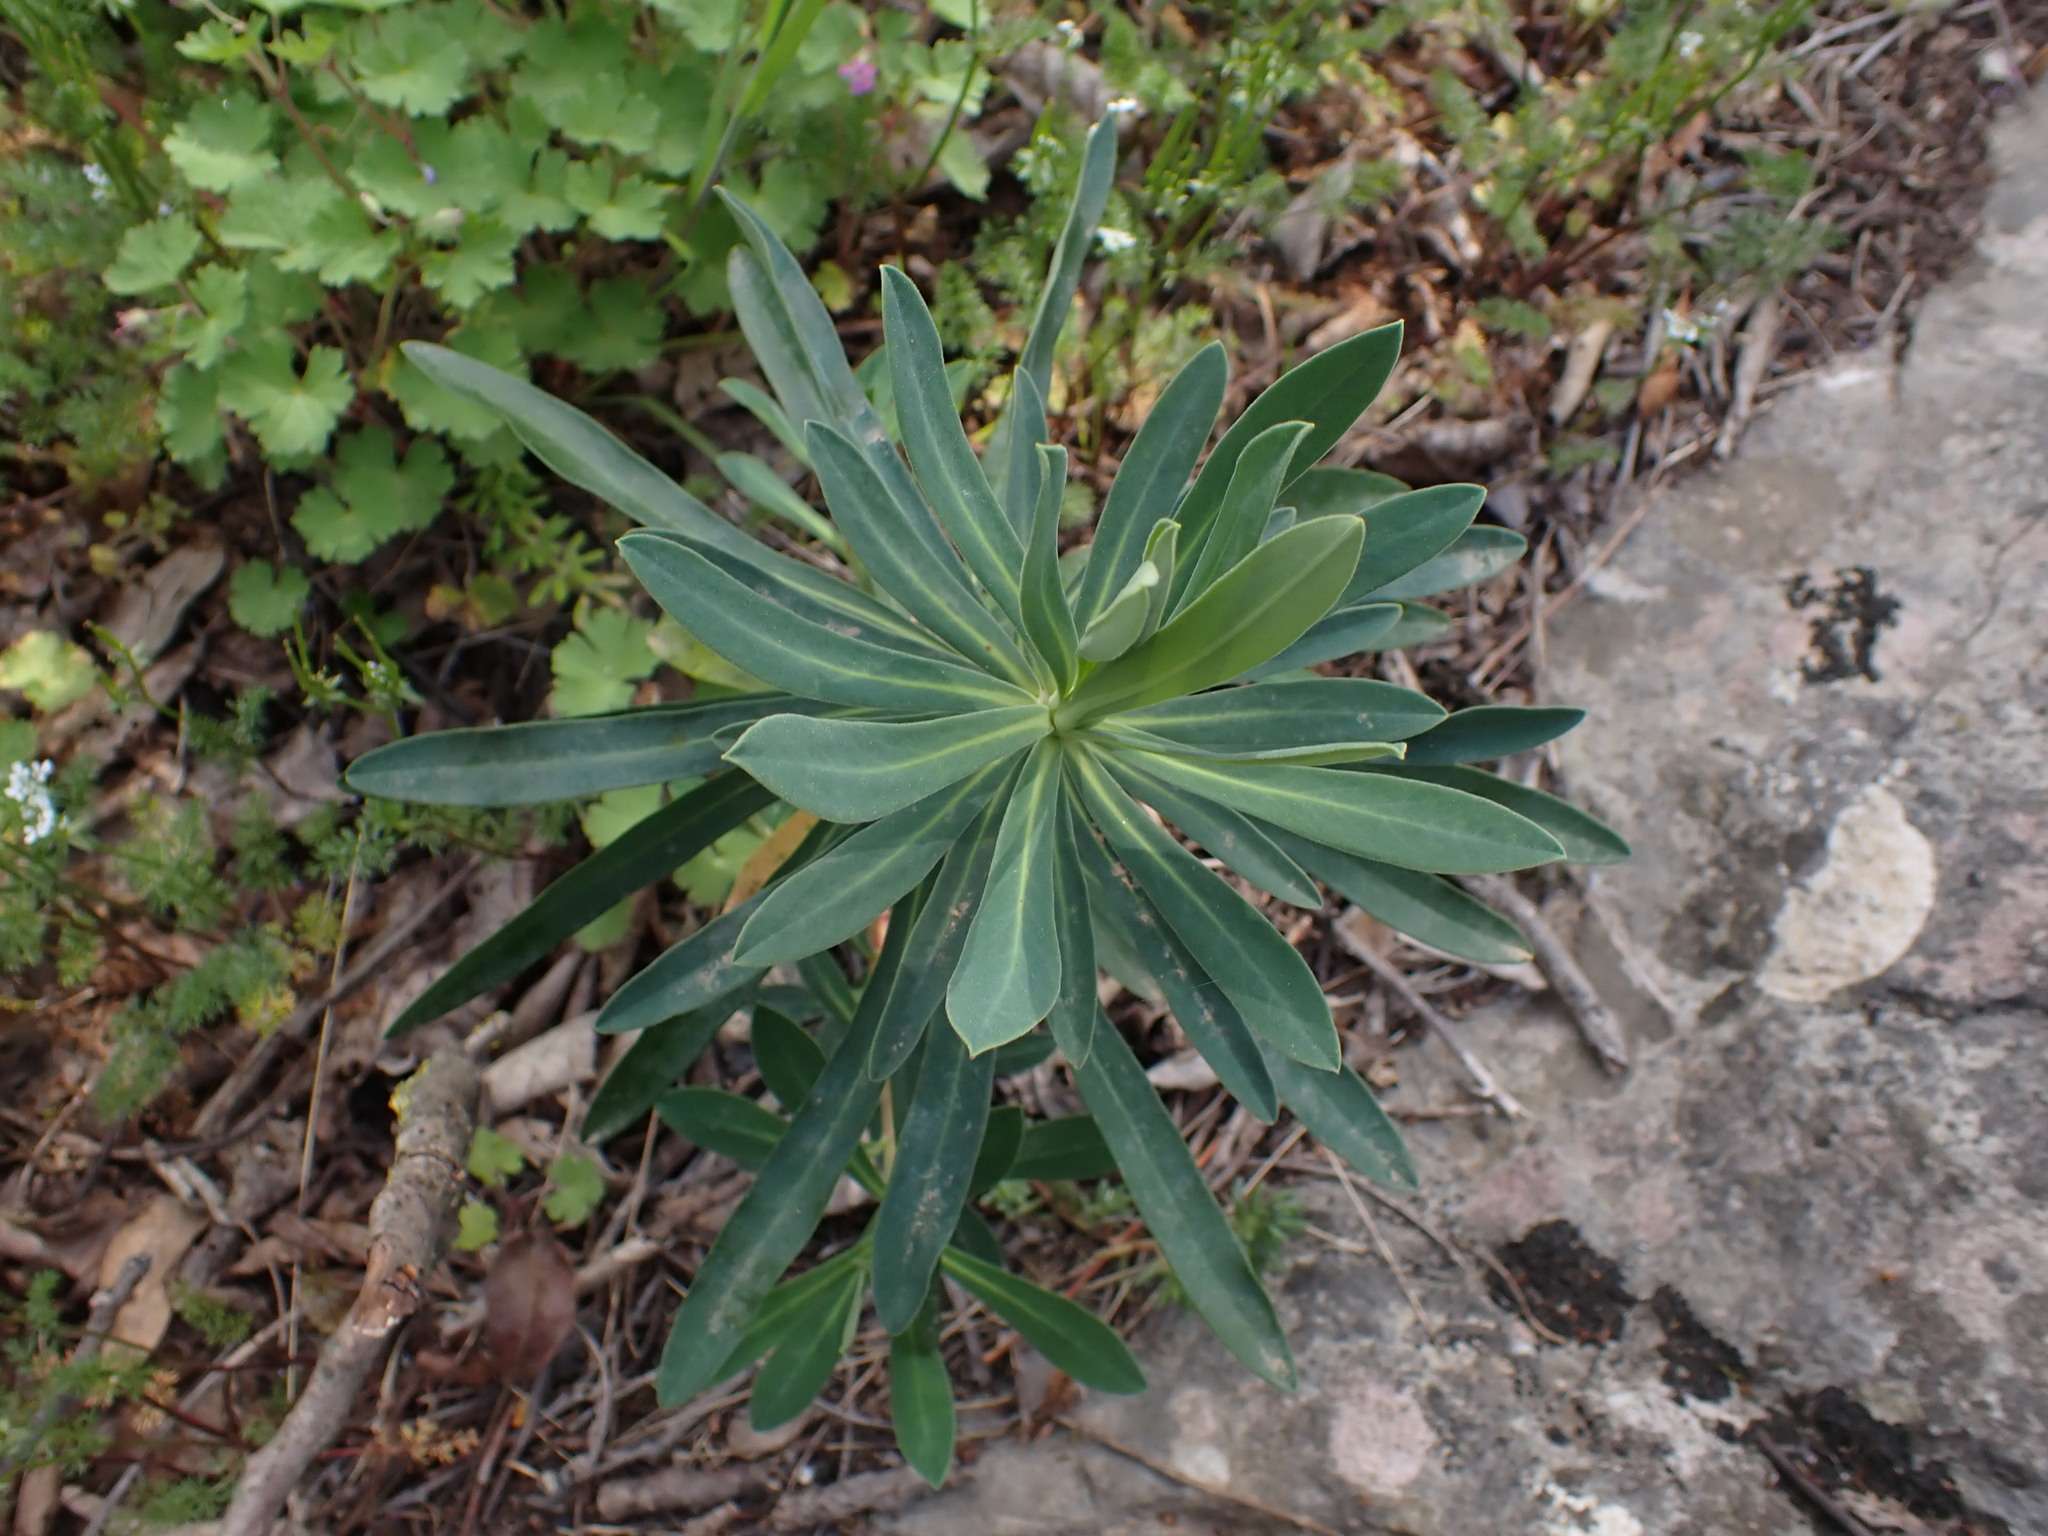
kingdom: Plantae
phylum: Tracheophyta
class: Magnoliopsida
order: Malpighiales
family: Euphorbiaceae
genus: Euphorbia
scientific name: Euphorbia characias
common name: Mediterranean spurge
